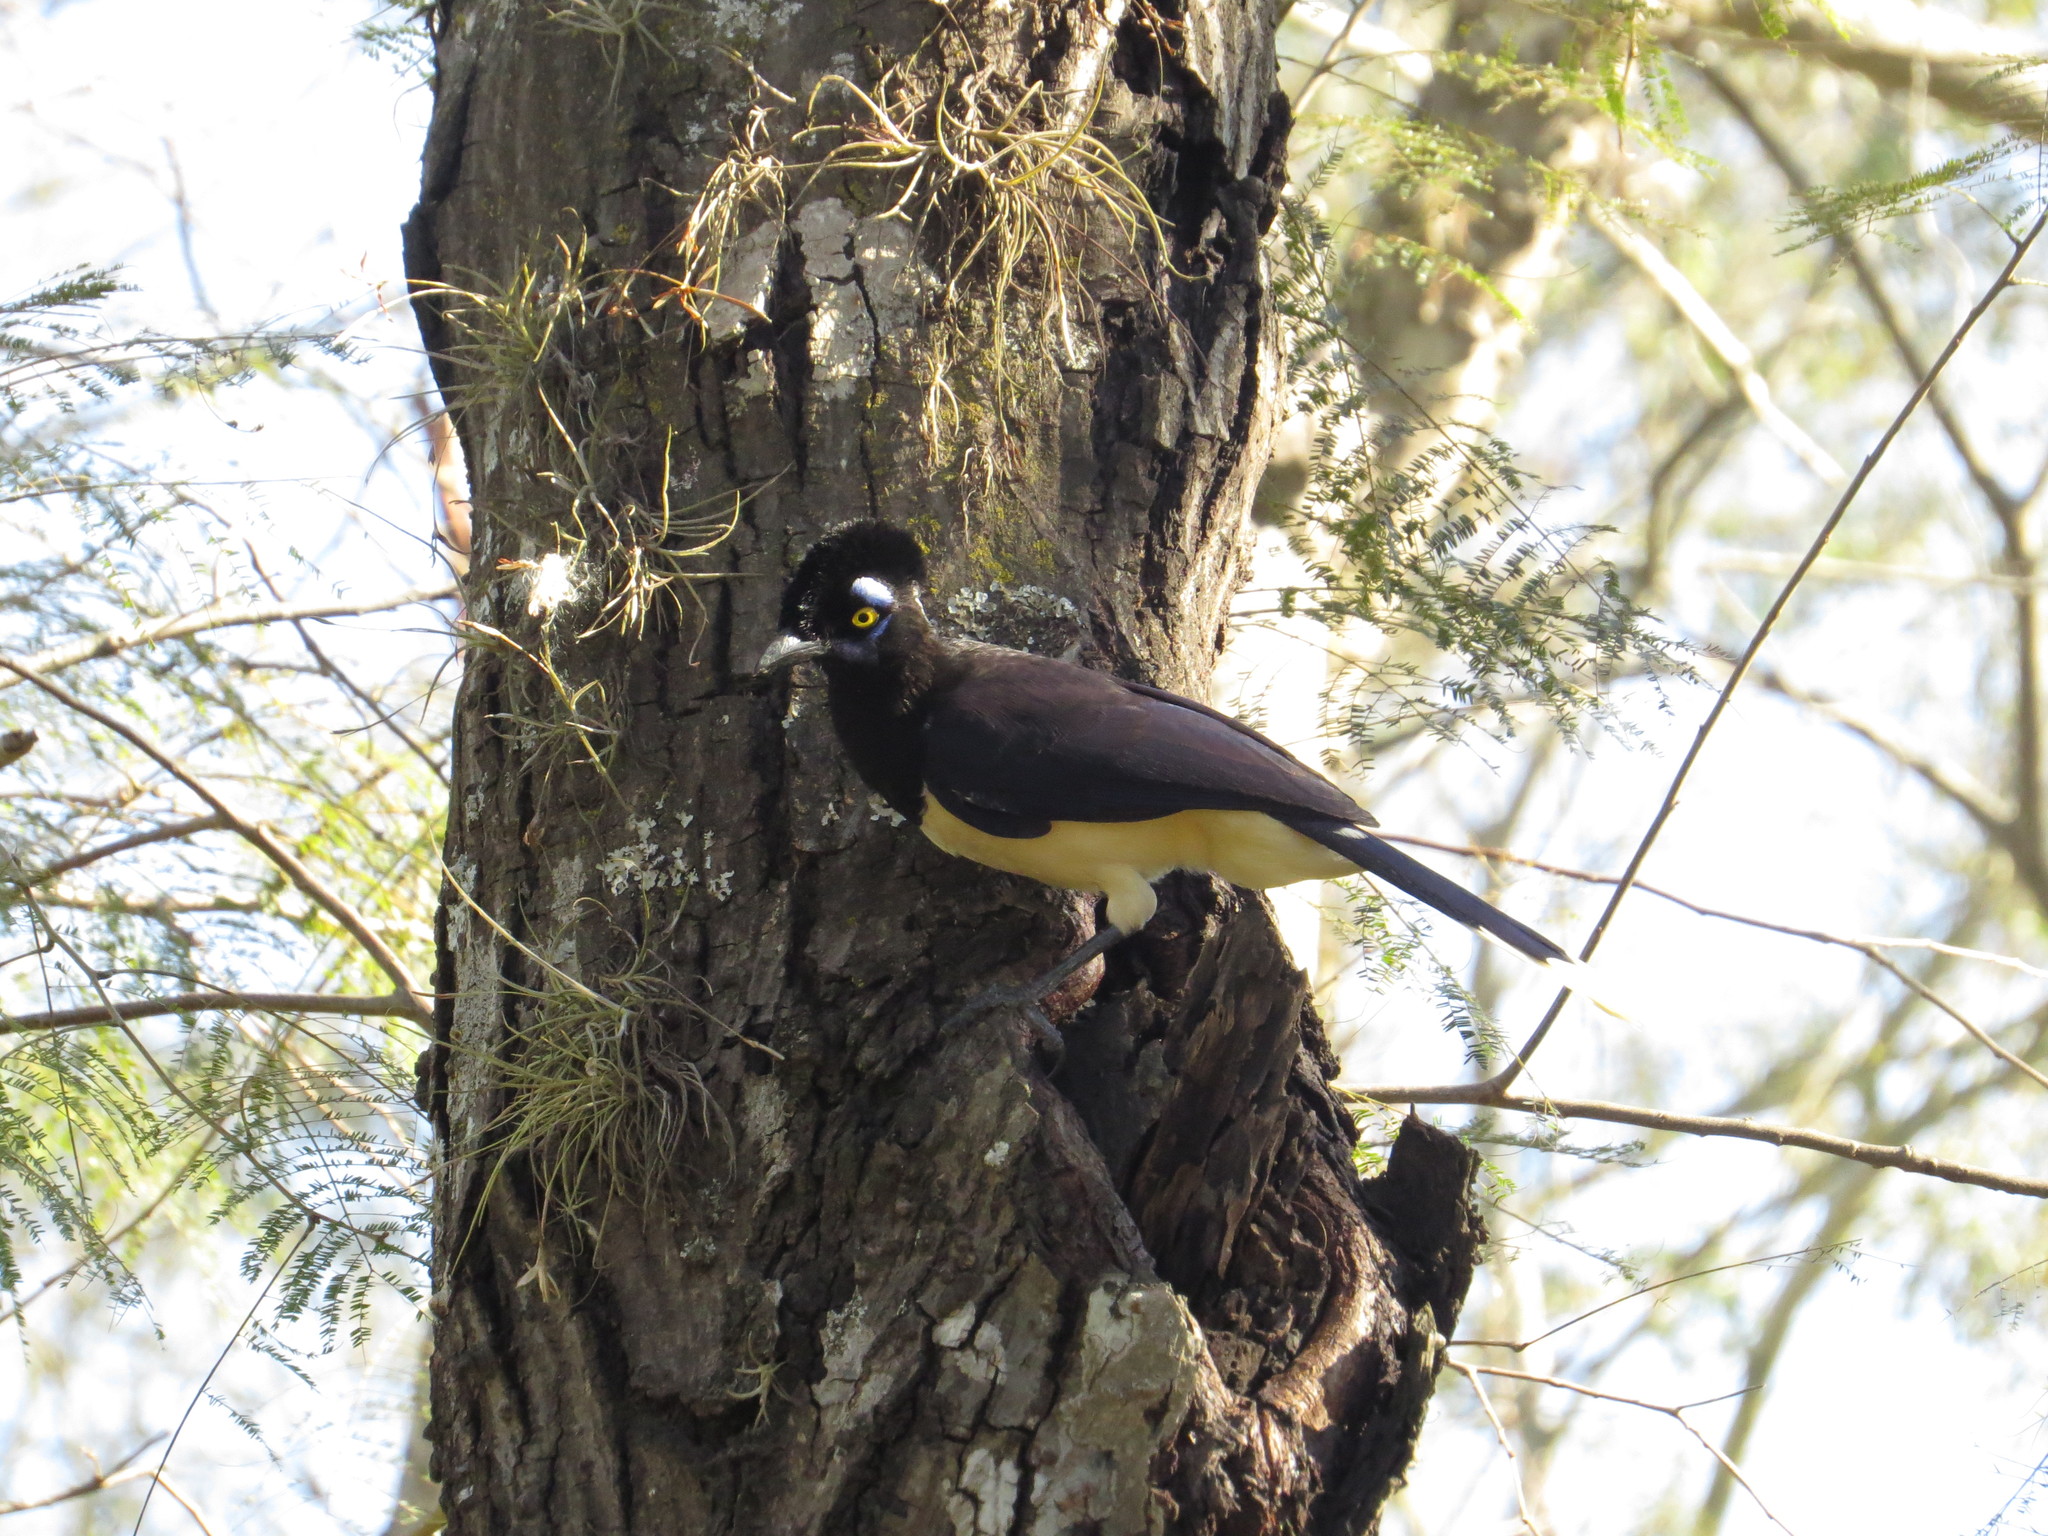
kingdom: Animalia
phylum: Chordata
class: Aves
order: Passeriformes
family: Corvidae
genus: Cyanocorax
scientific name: Cyanocorax chrysops
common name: Plush-crested jay
